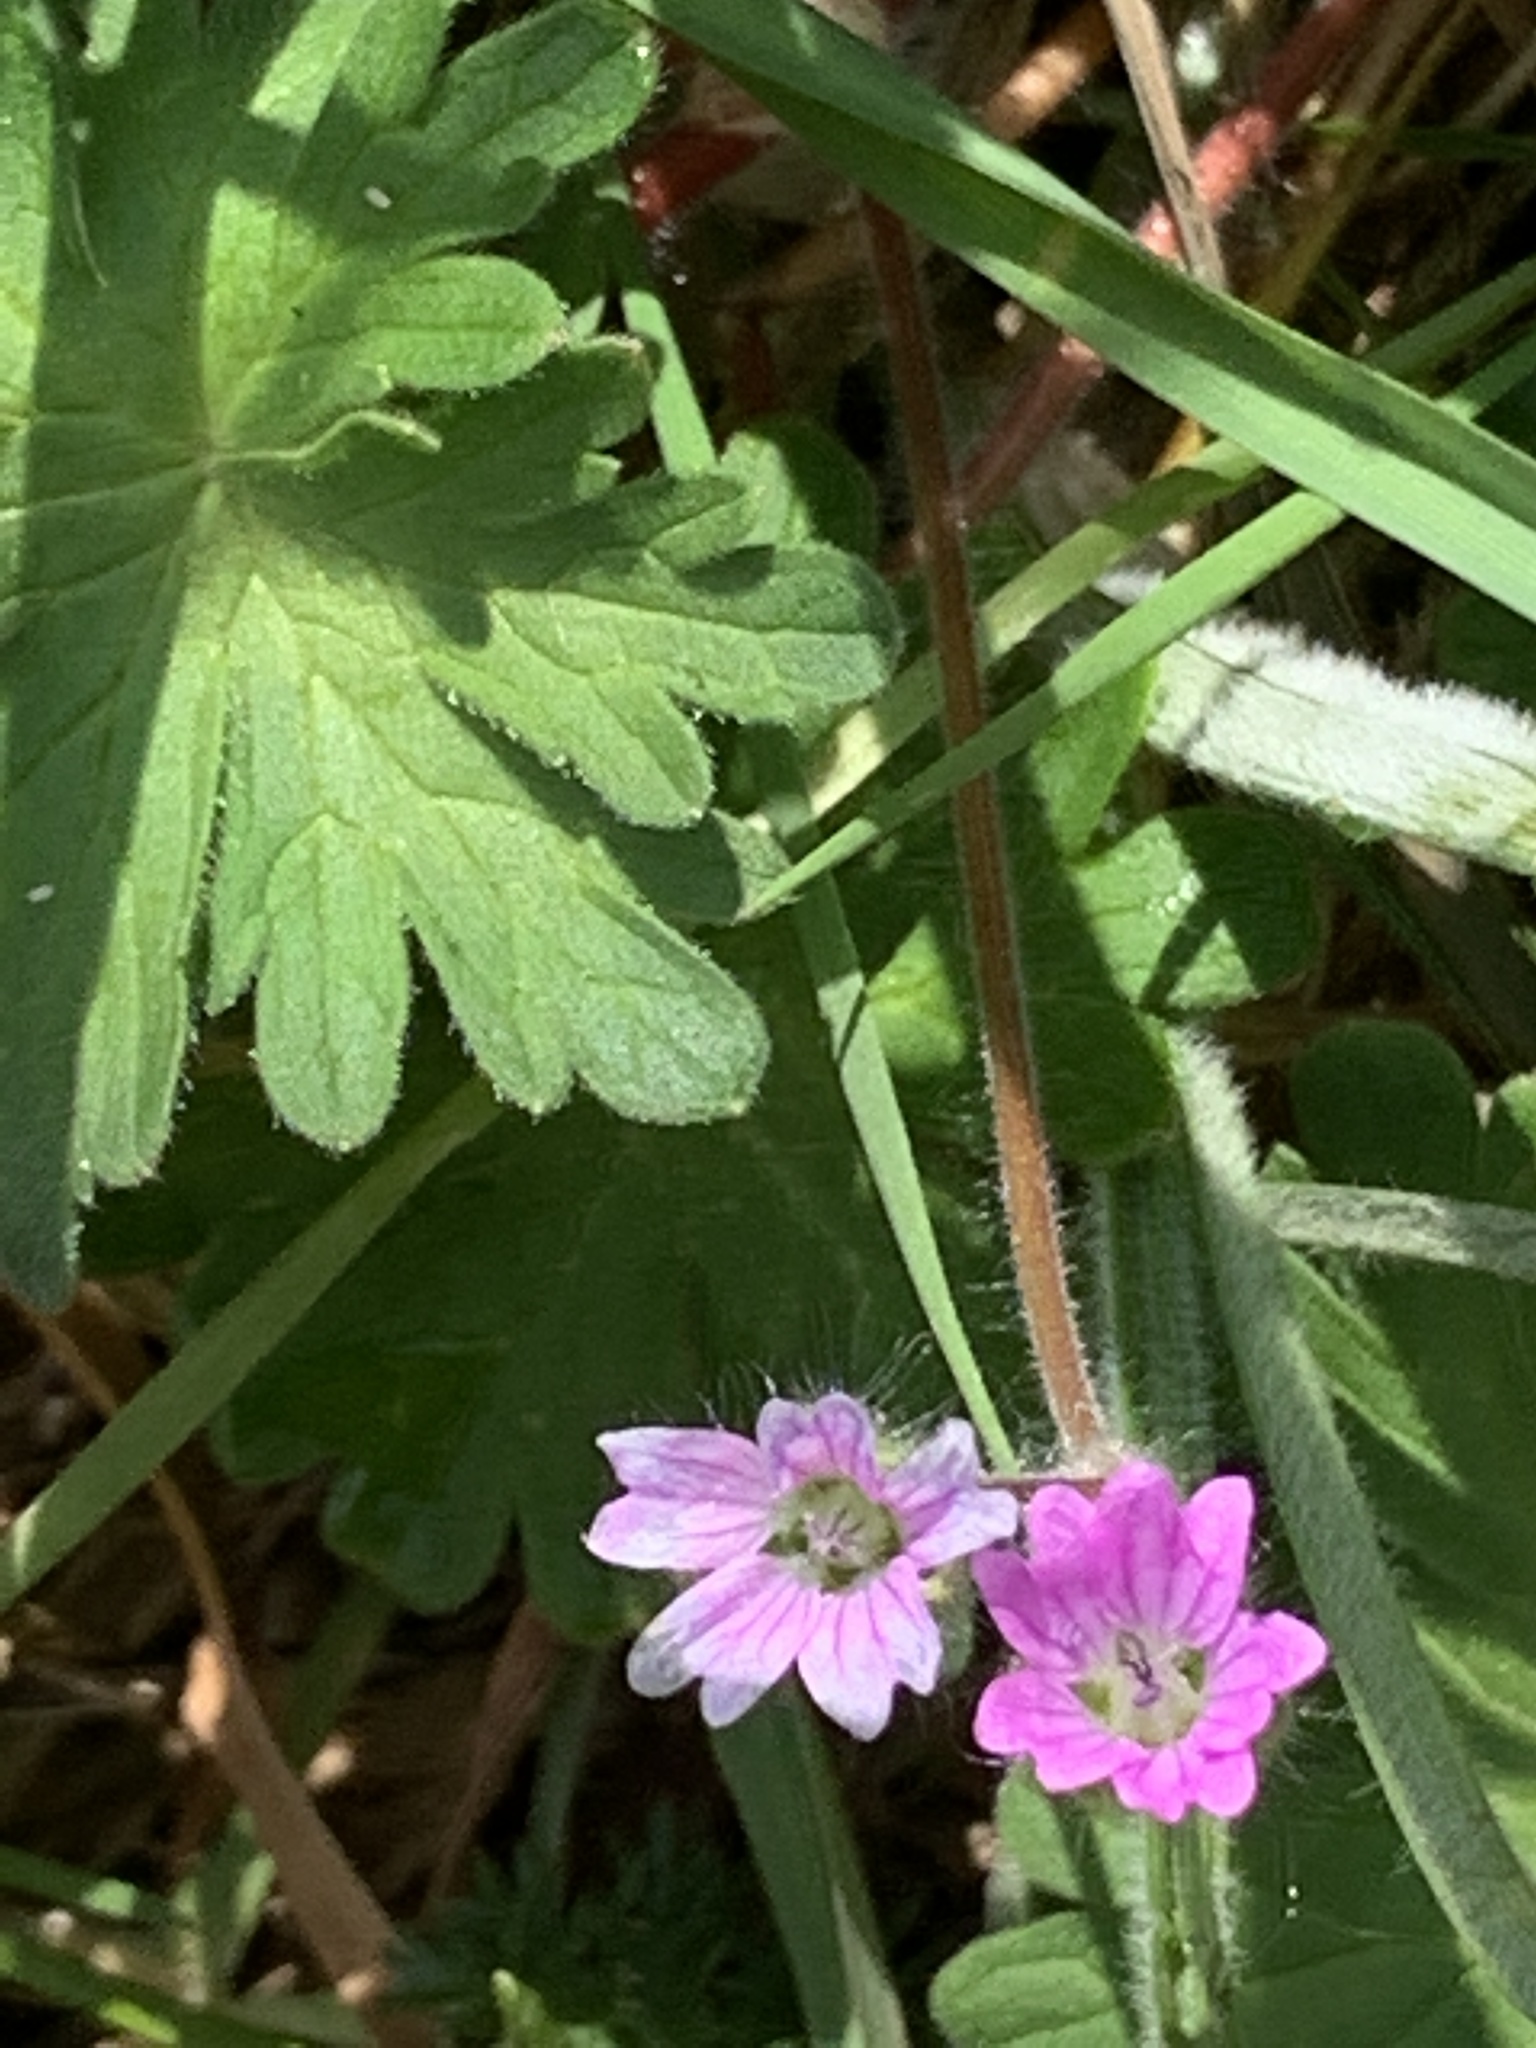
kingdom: Plantae
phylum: Tracheophyta
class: Magnoliopsida
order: Geraniales
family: Geraniaceae
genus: Geranium
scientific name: Geranium molle
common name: Dove's-foot crane's-bill
